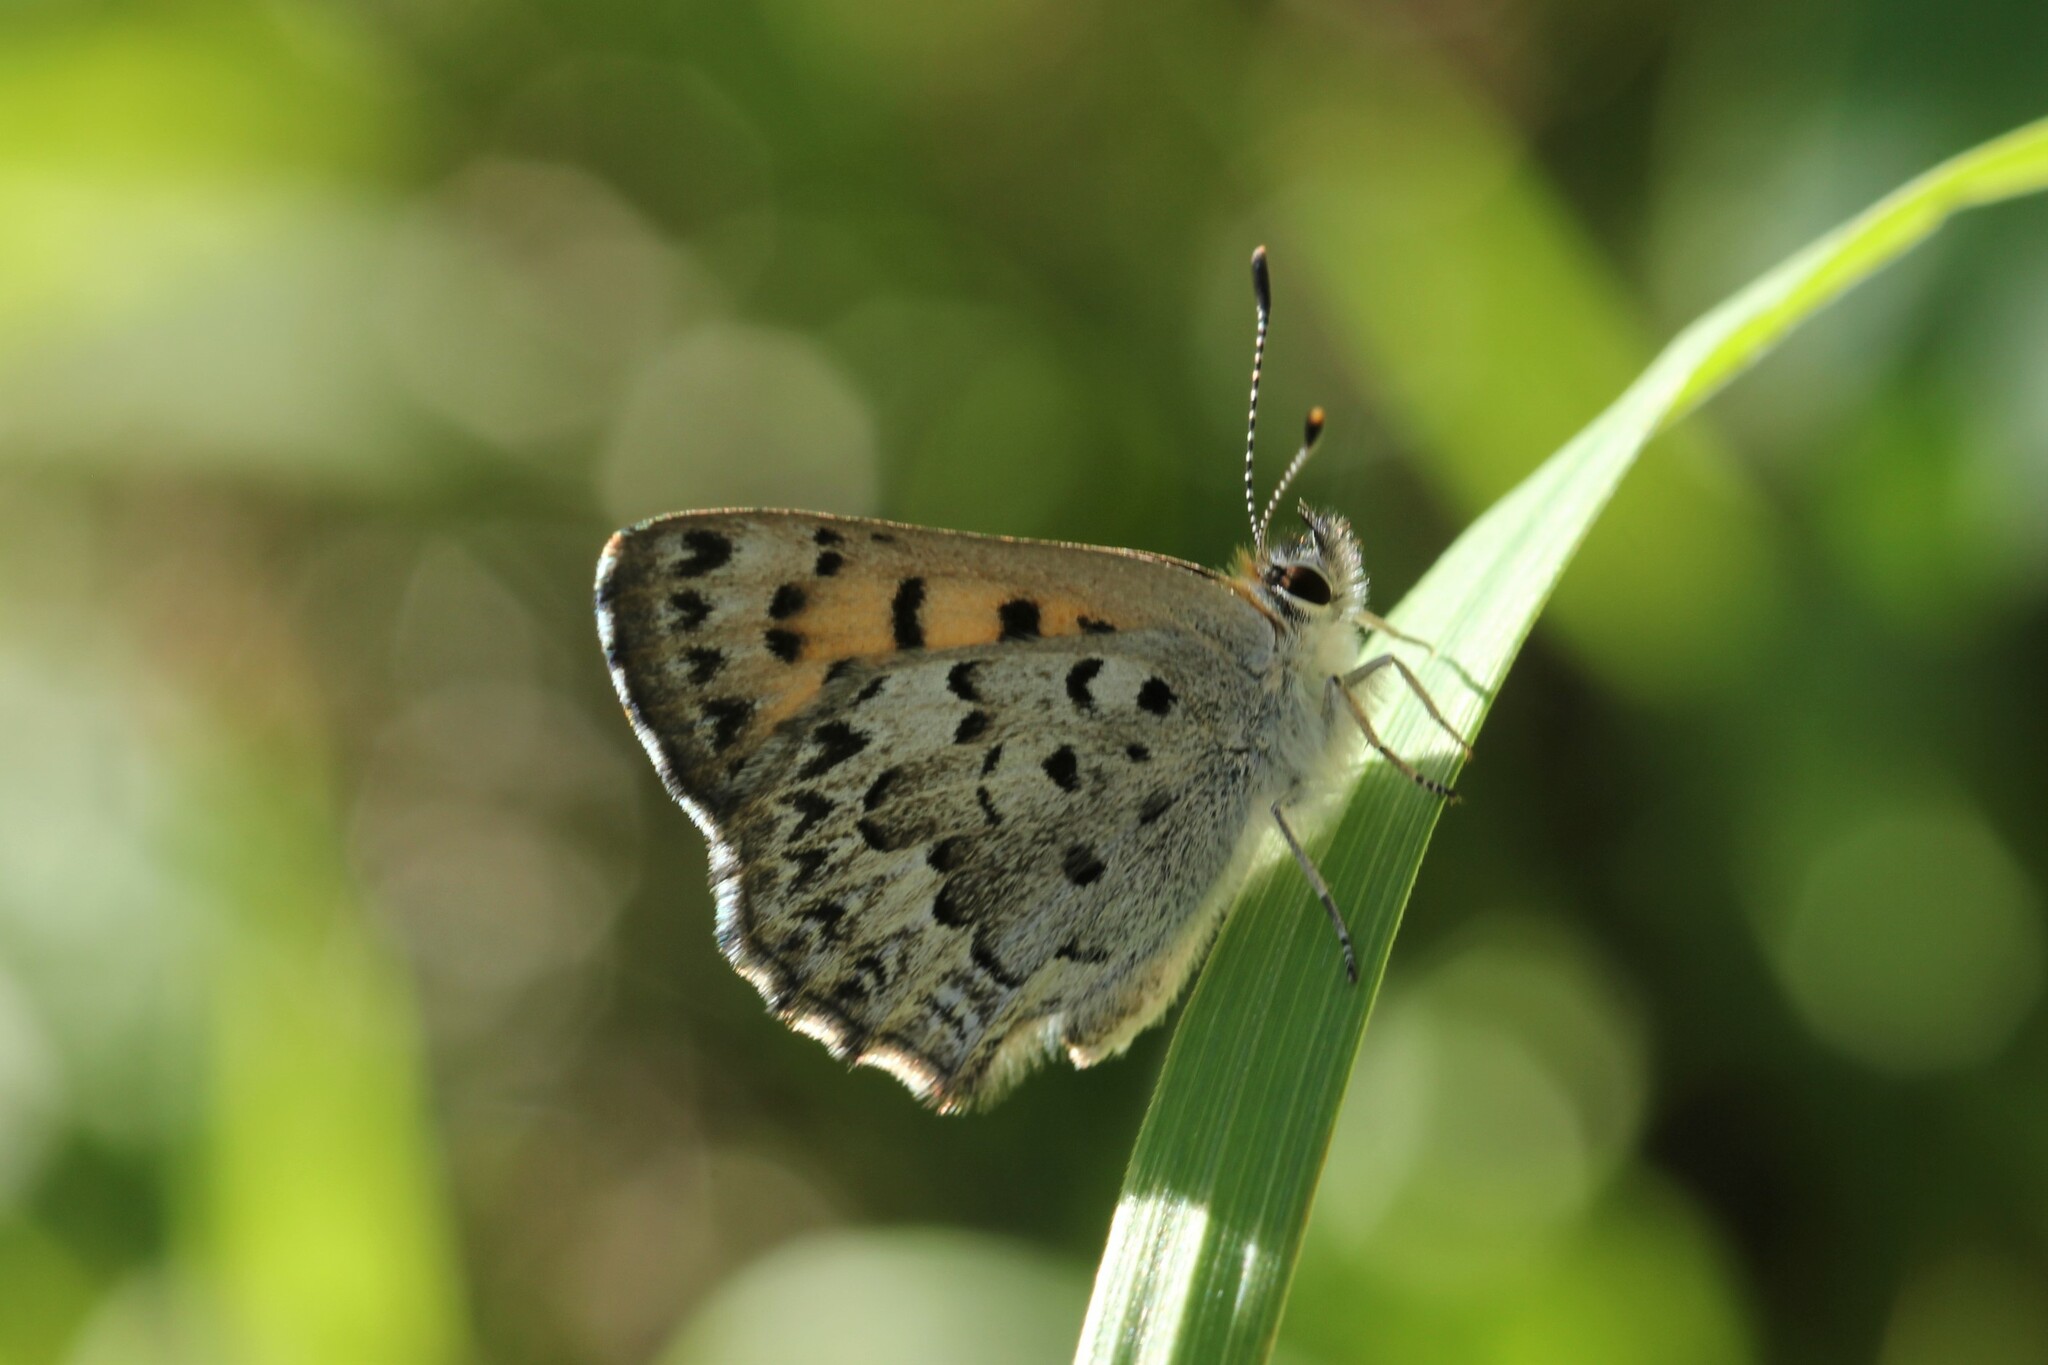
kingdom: Animalia
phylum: Arthropoda
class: Insecta
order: Lepidoptera
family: Lycaenidae
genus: Tharsalea
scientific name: Tharsalea mariposa
